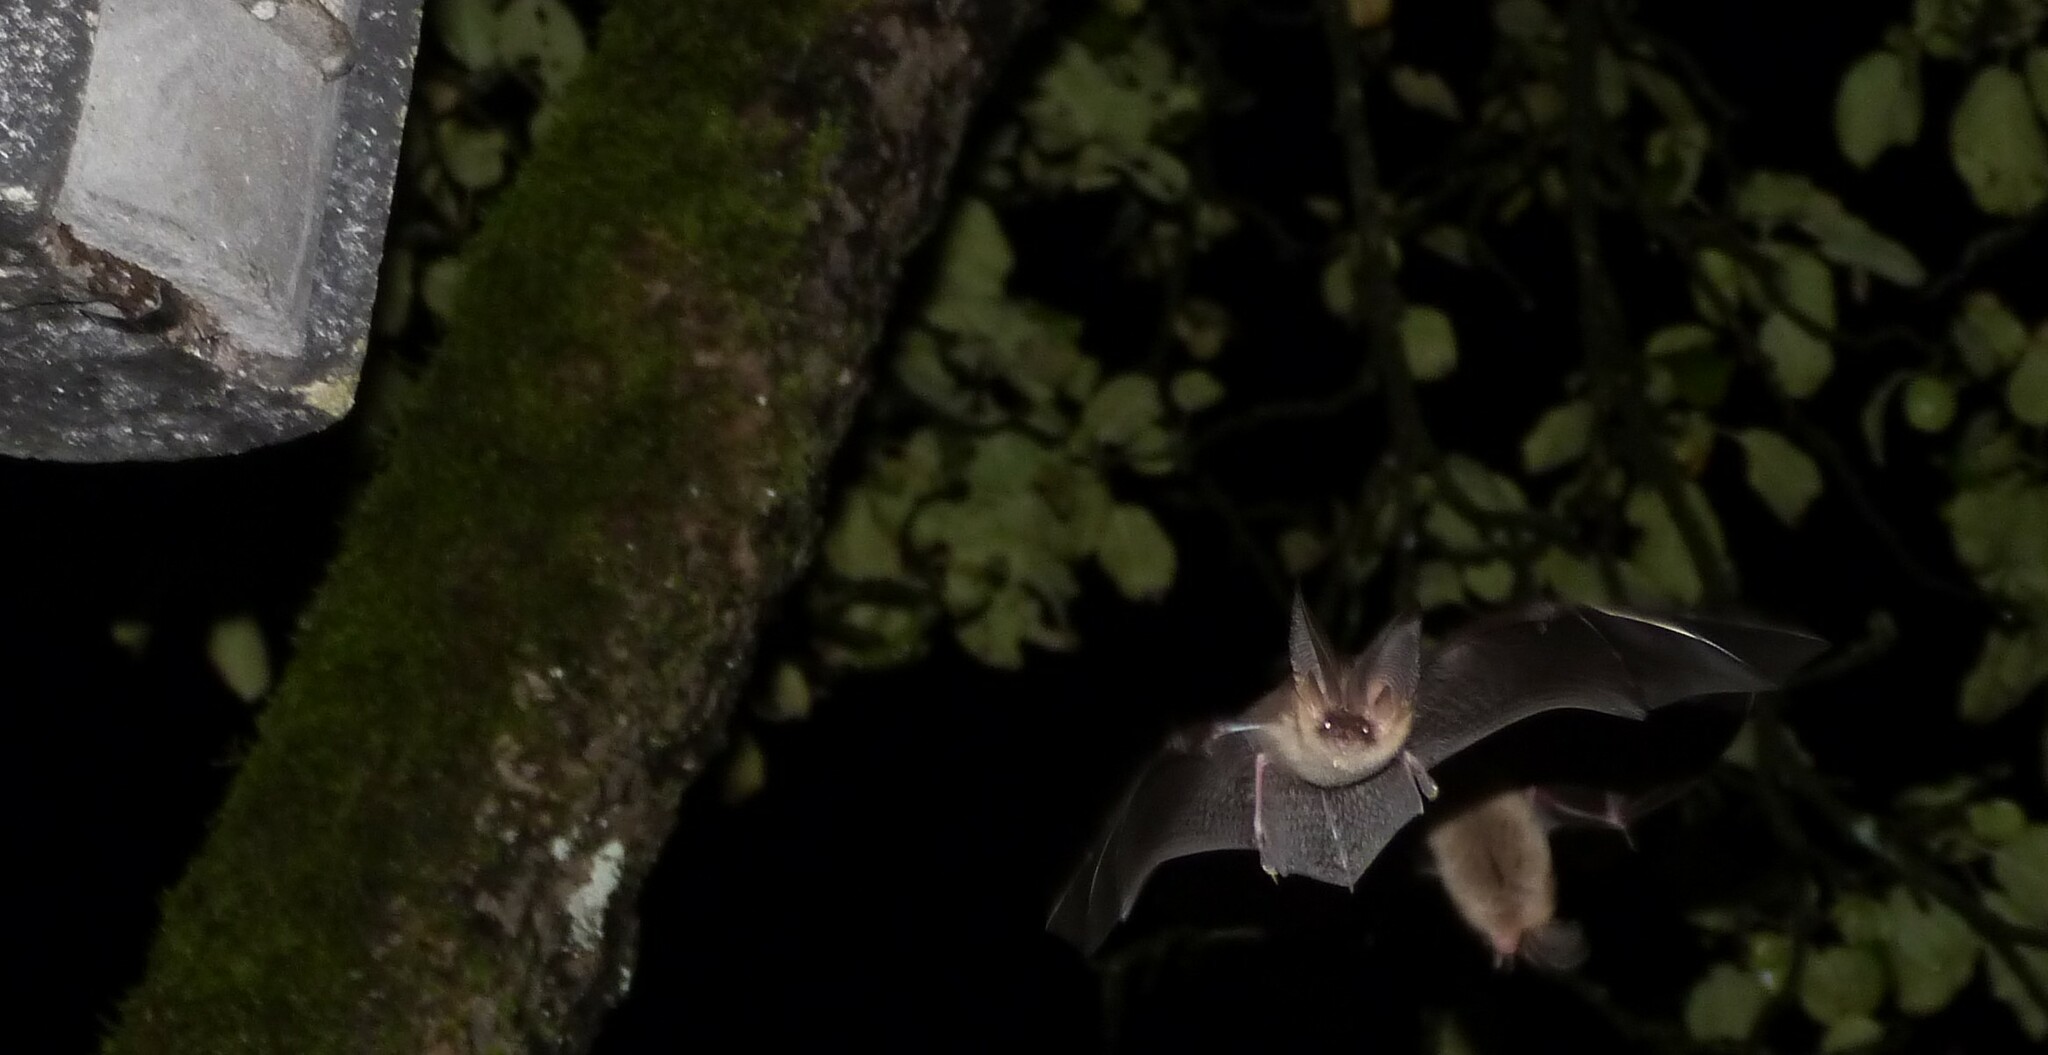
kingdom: Animalia
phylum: Chordata
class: Mammalia
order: Chiroptera
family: Vespertilionidae
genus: Plecotus
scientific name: Plecotus auritus
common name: Brown long-eared bat
